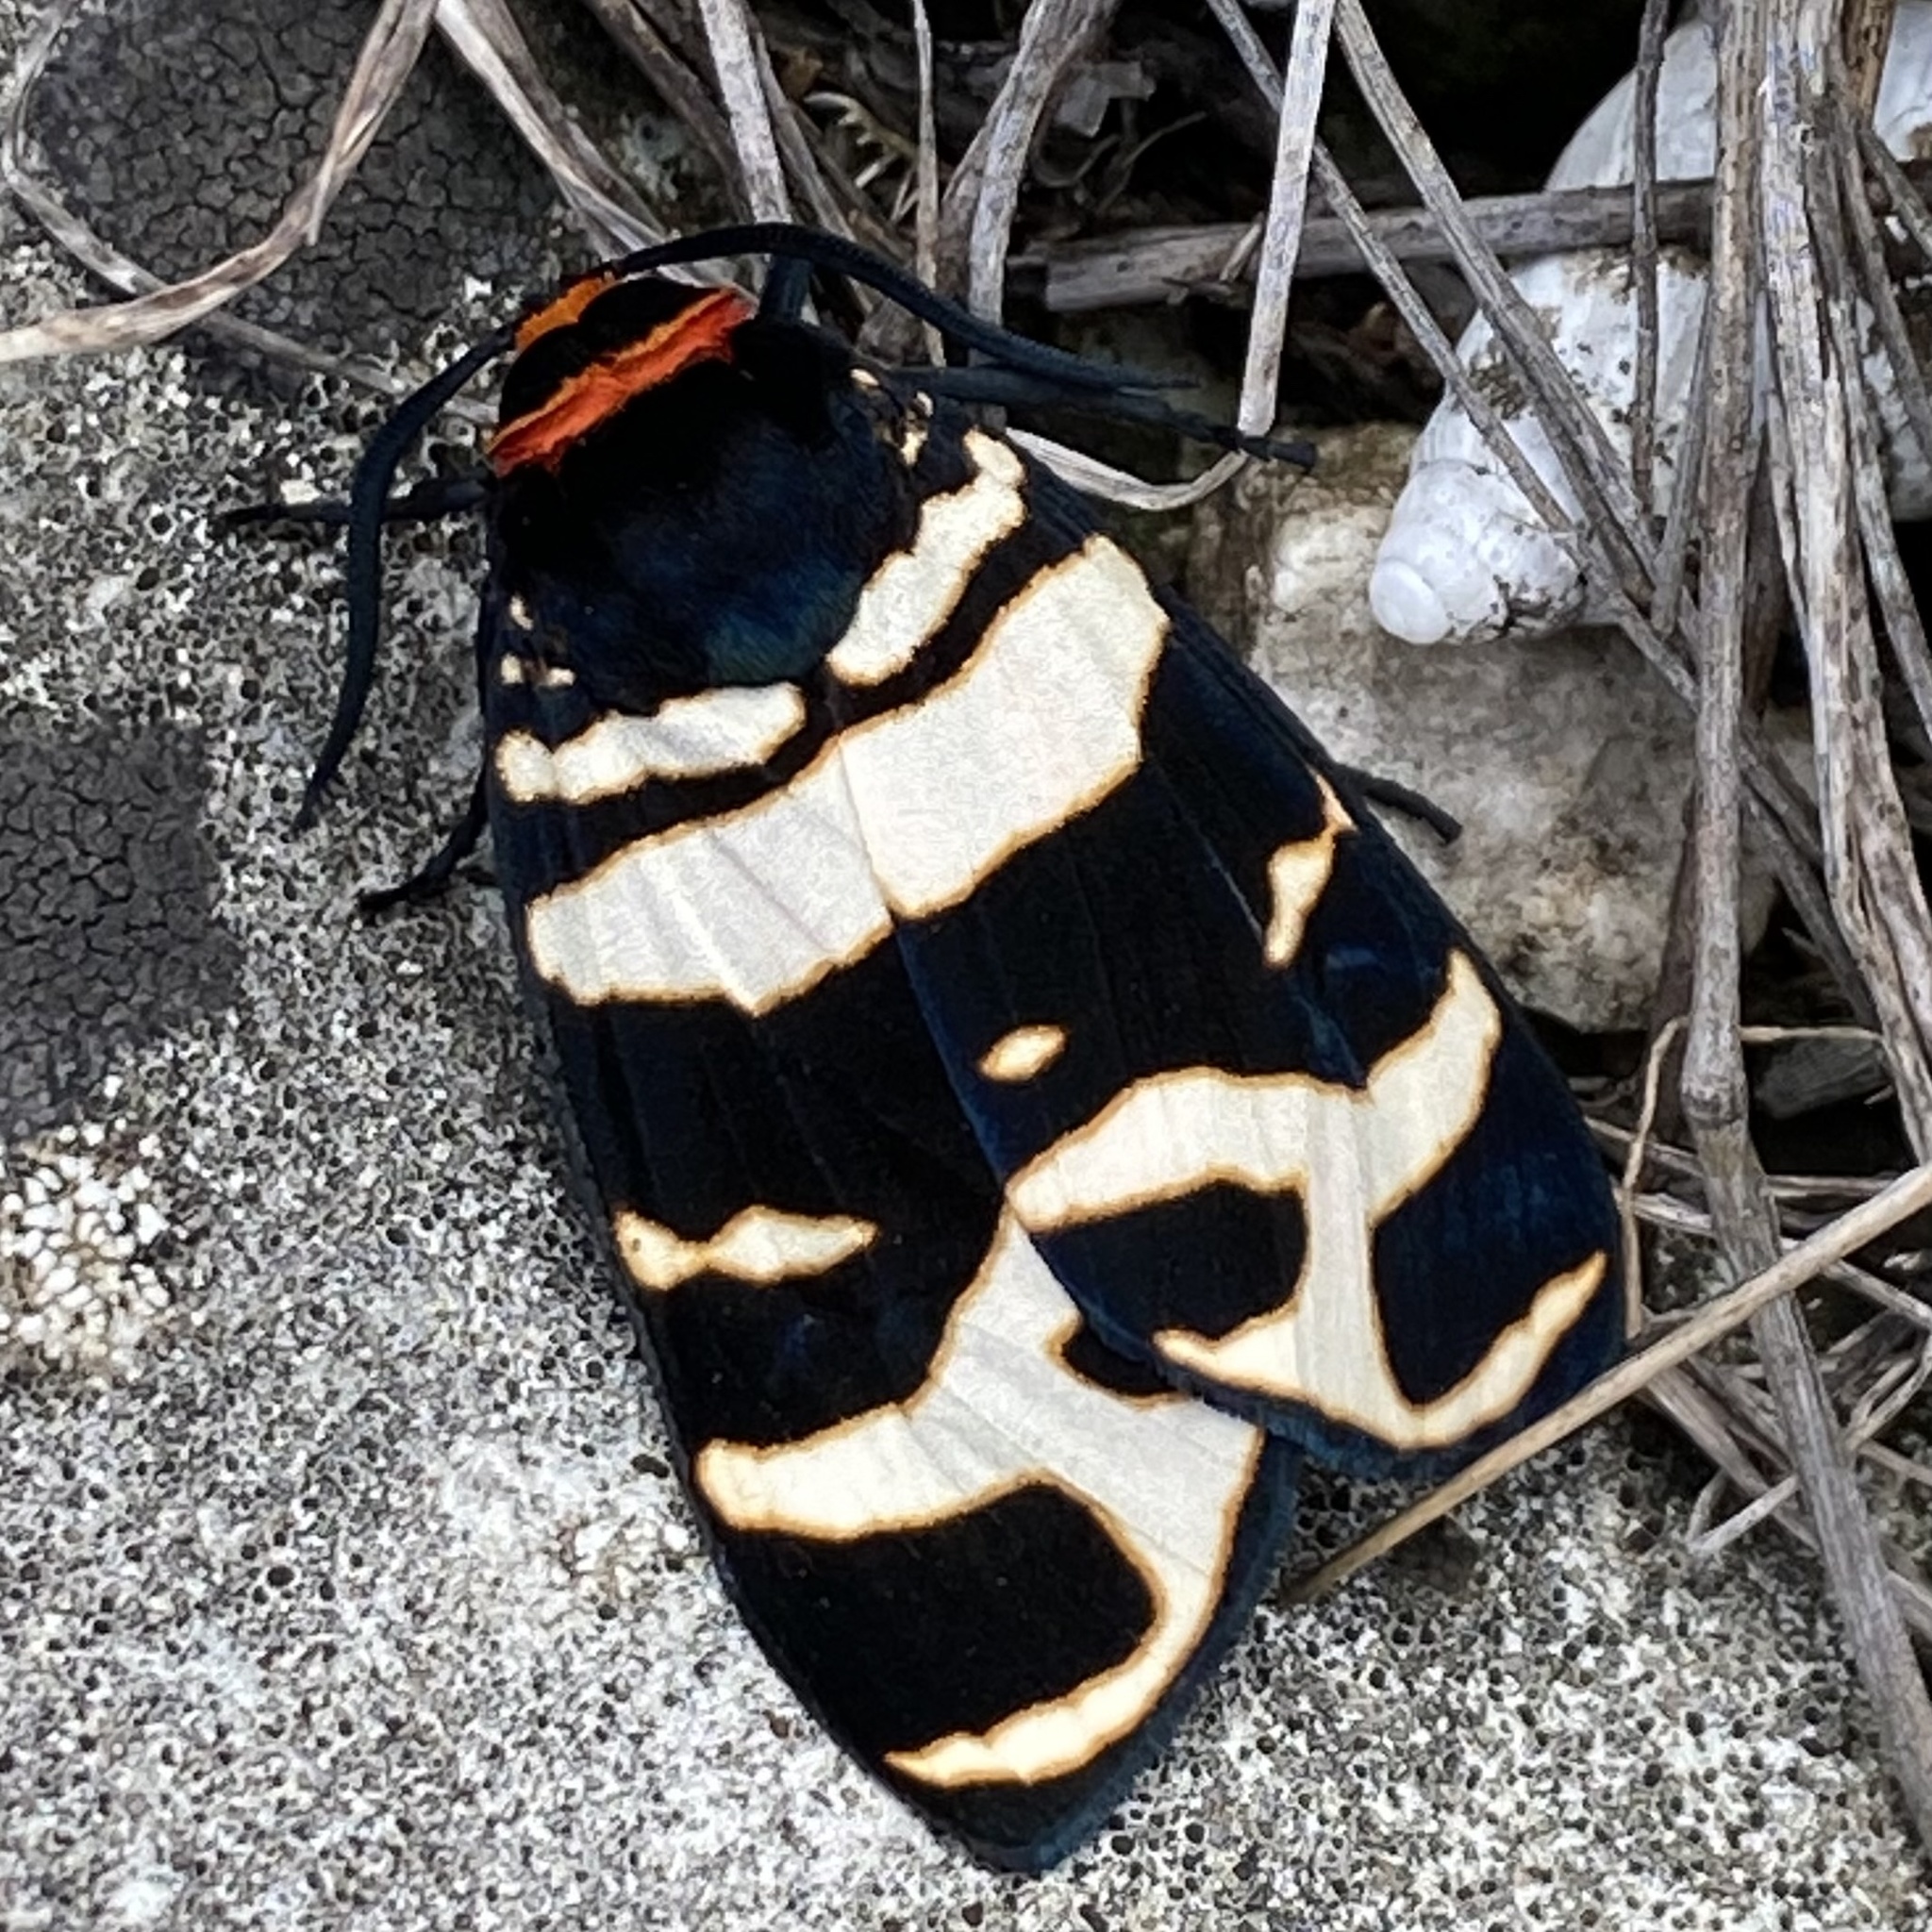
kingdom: Animalia
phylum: Arthropoda
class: Insecta
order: Lepidoptera
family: Erebidae
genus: Eucharia
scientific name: Eucharia festiva
